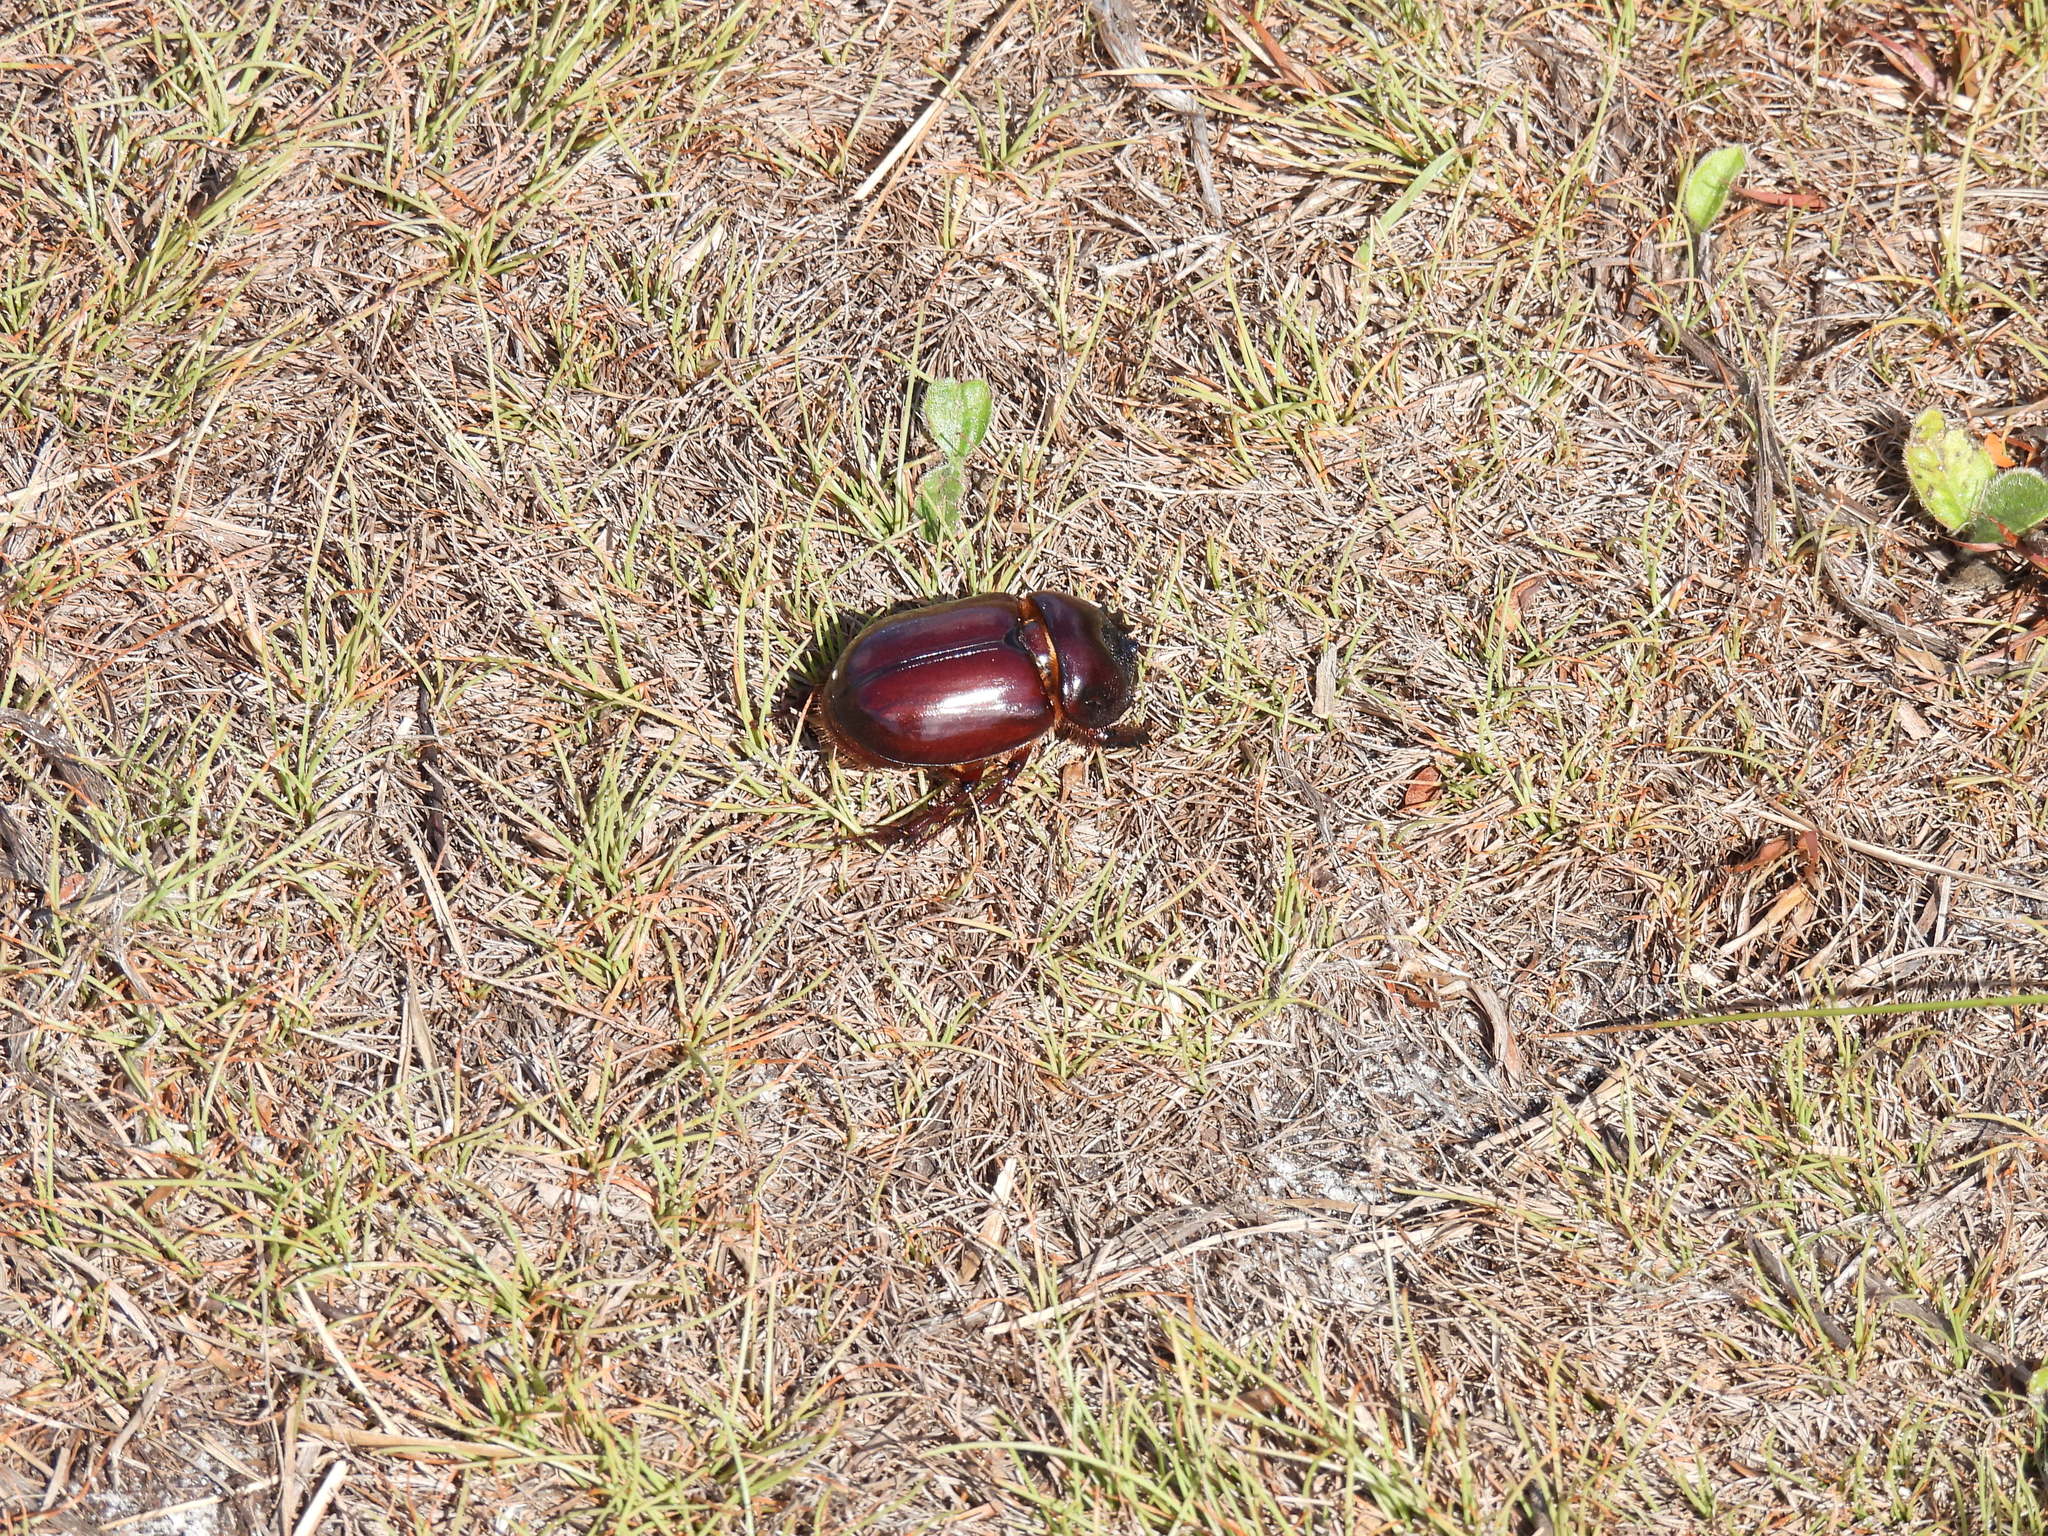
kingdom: Animalia
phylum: Arthropoda
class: Insecta
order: Coleoptera
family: Scarabaeidae
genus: Strategus
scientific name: Strategus splendens
